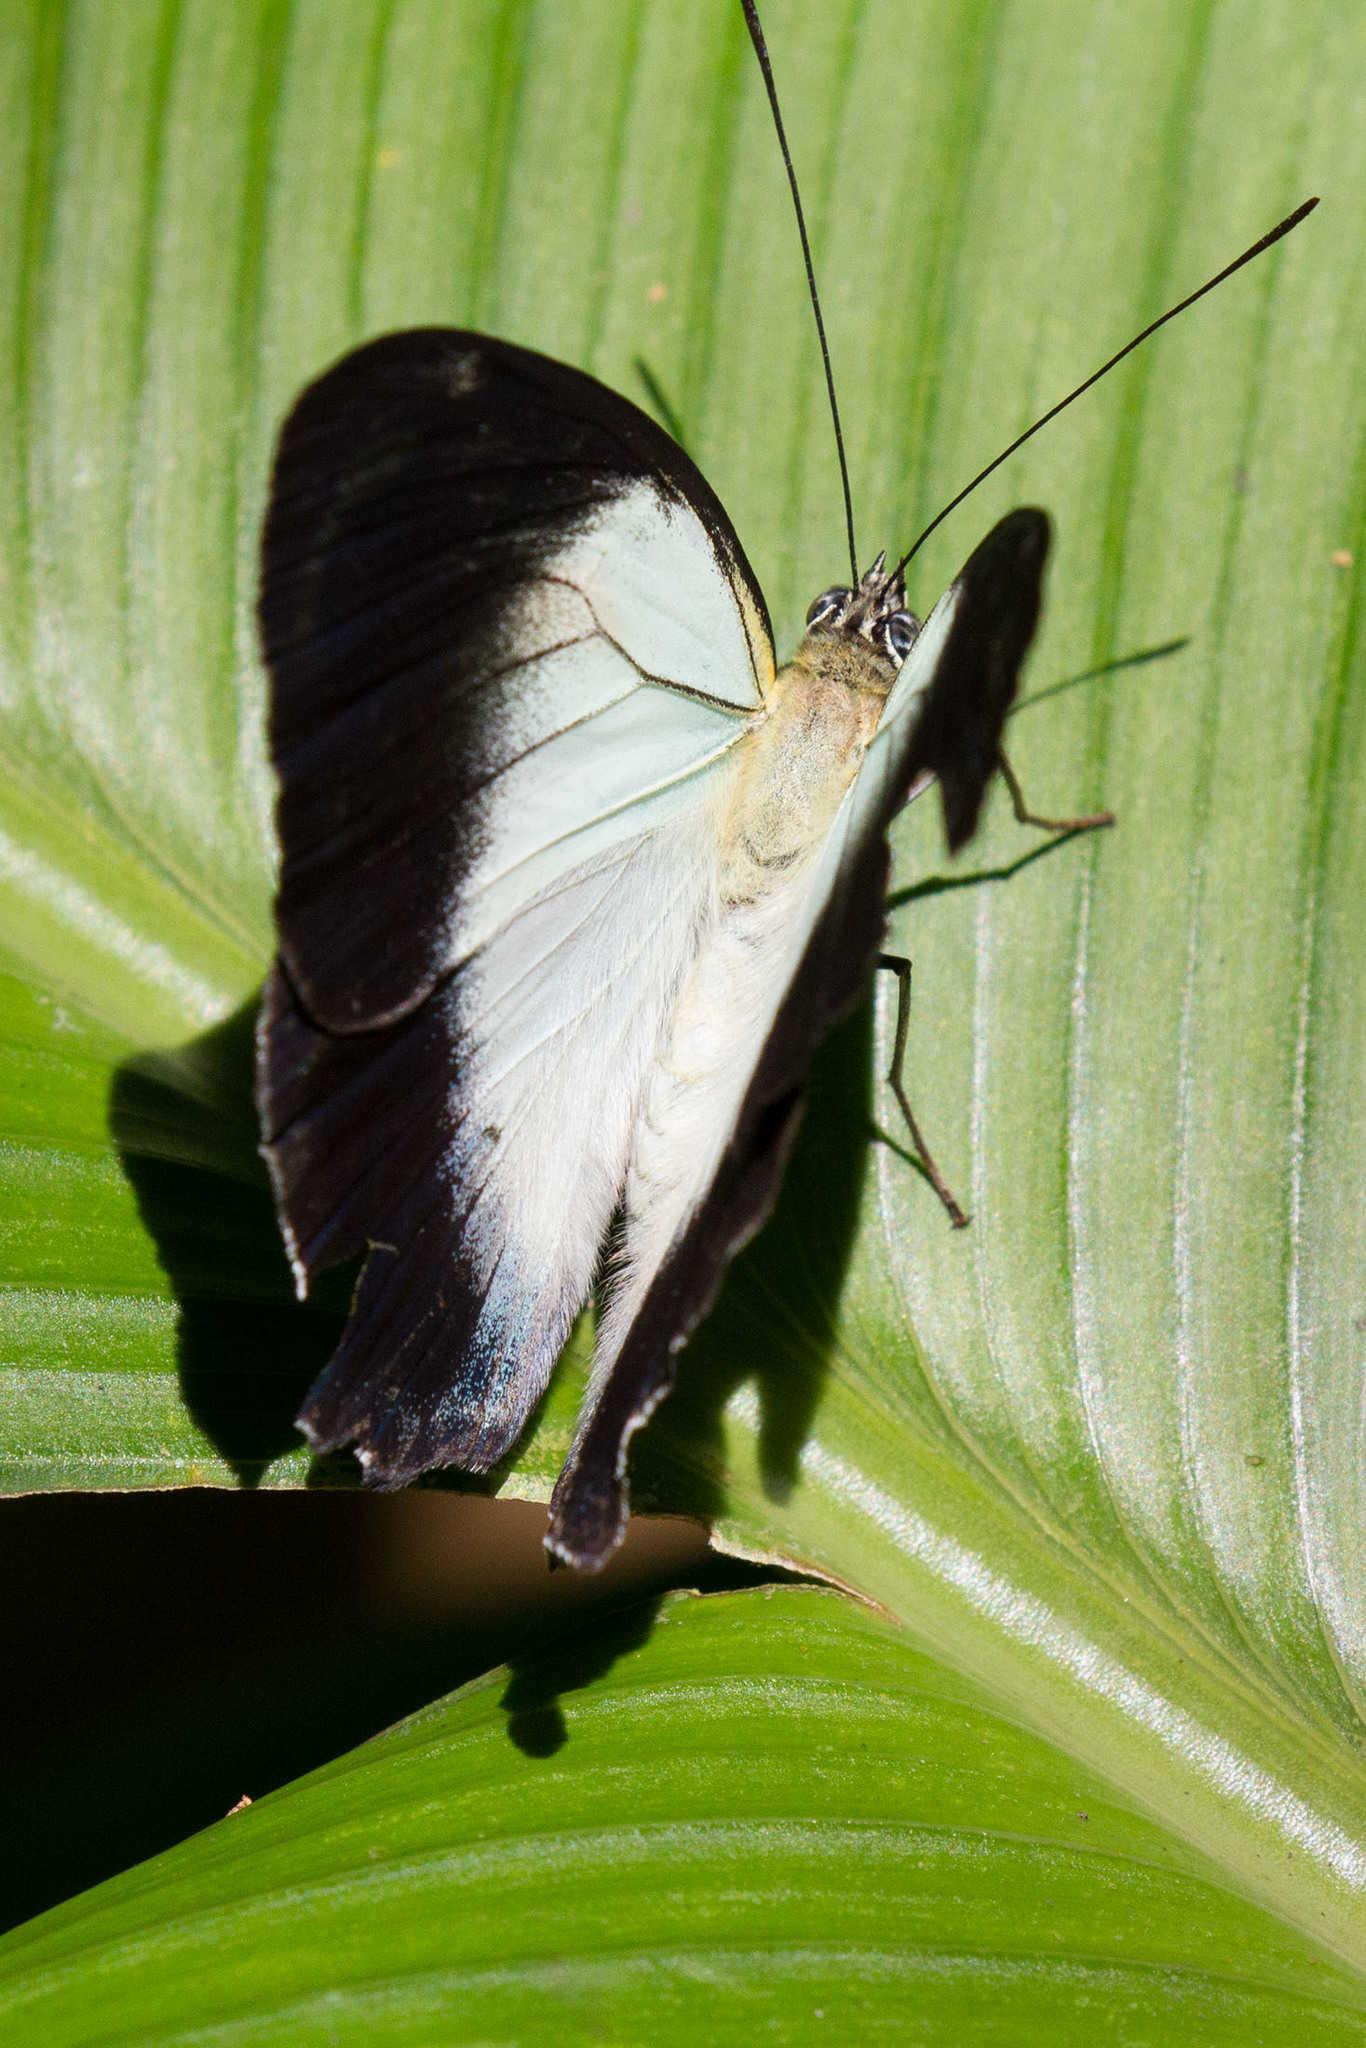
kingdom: Animalia
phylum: Arthropoda
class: Insecta
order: Lepidoptera
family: Nymphalidae
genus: Mynes
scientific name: Mynes geoffroyi
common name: Jezebel nymph
